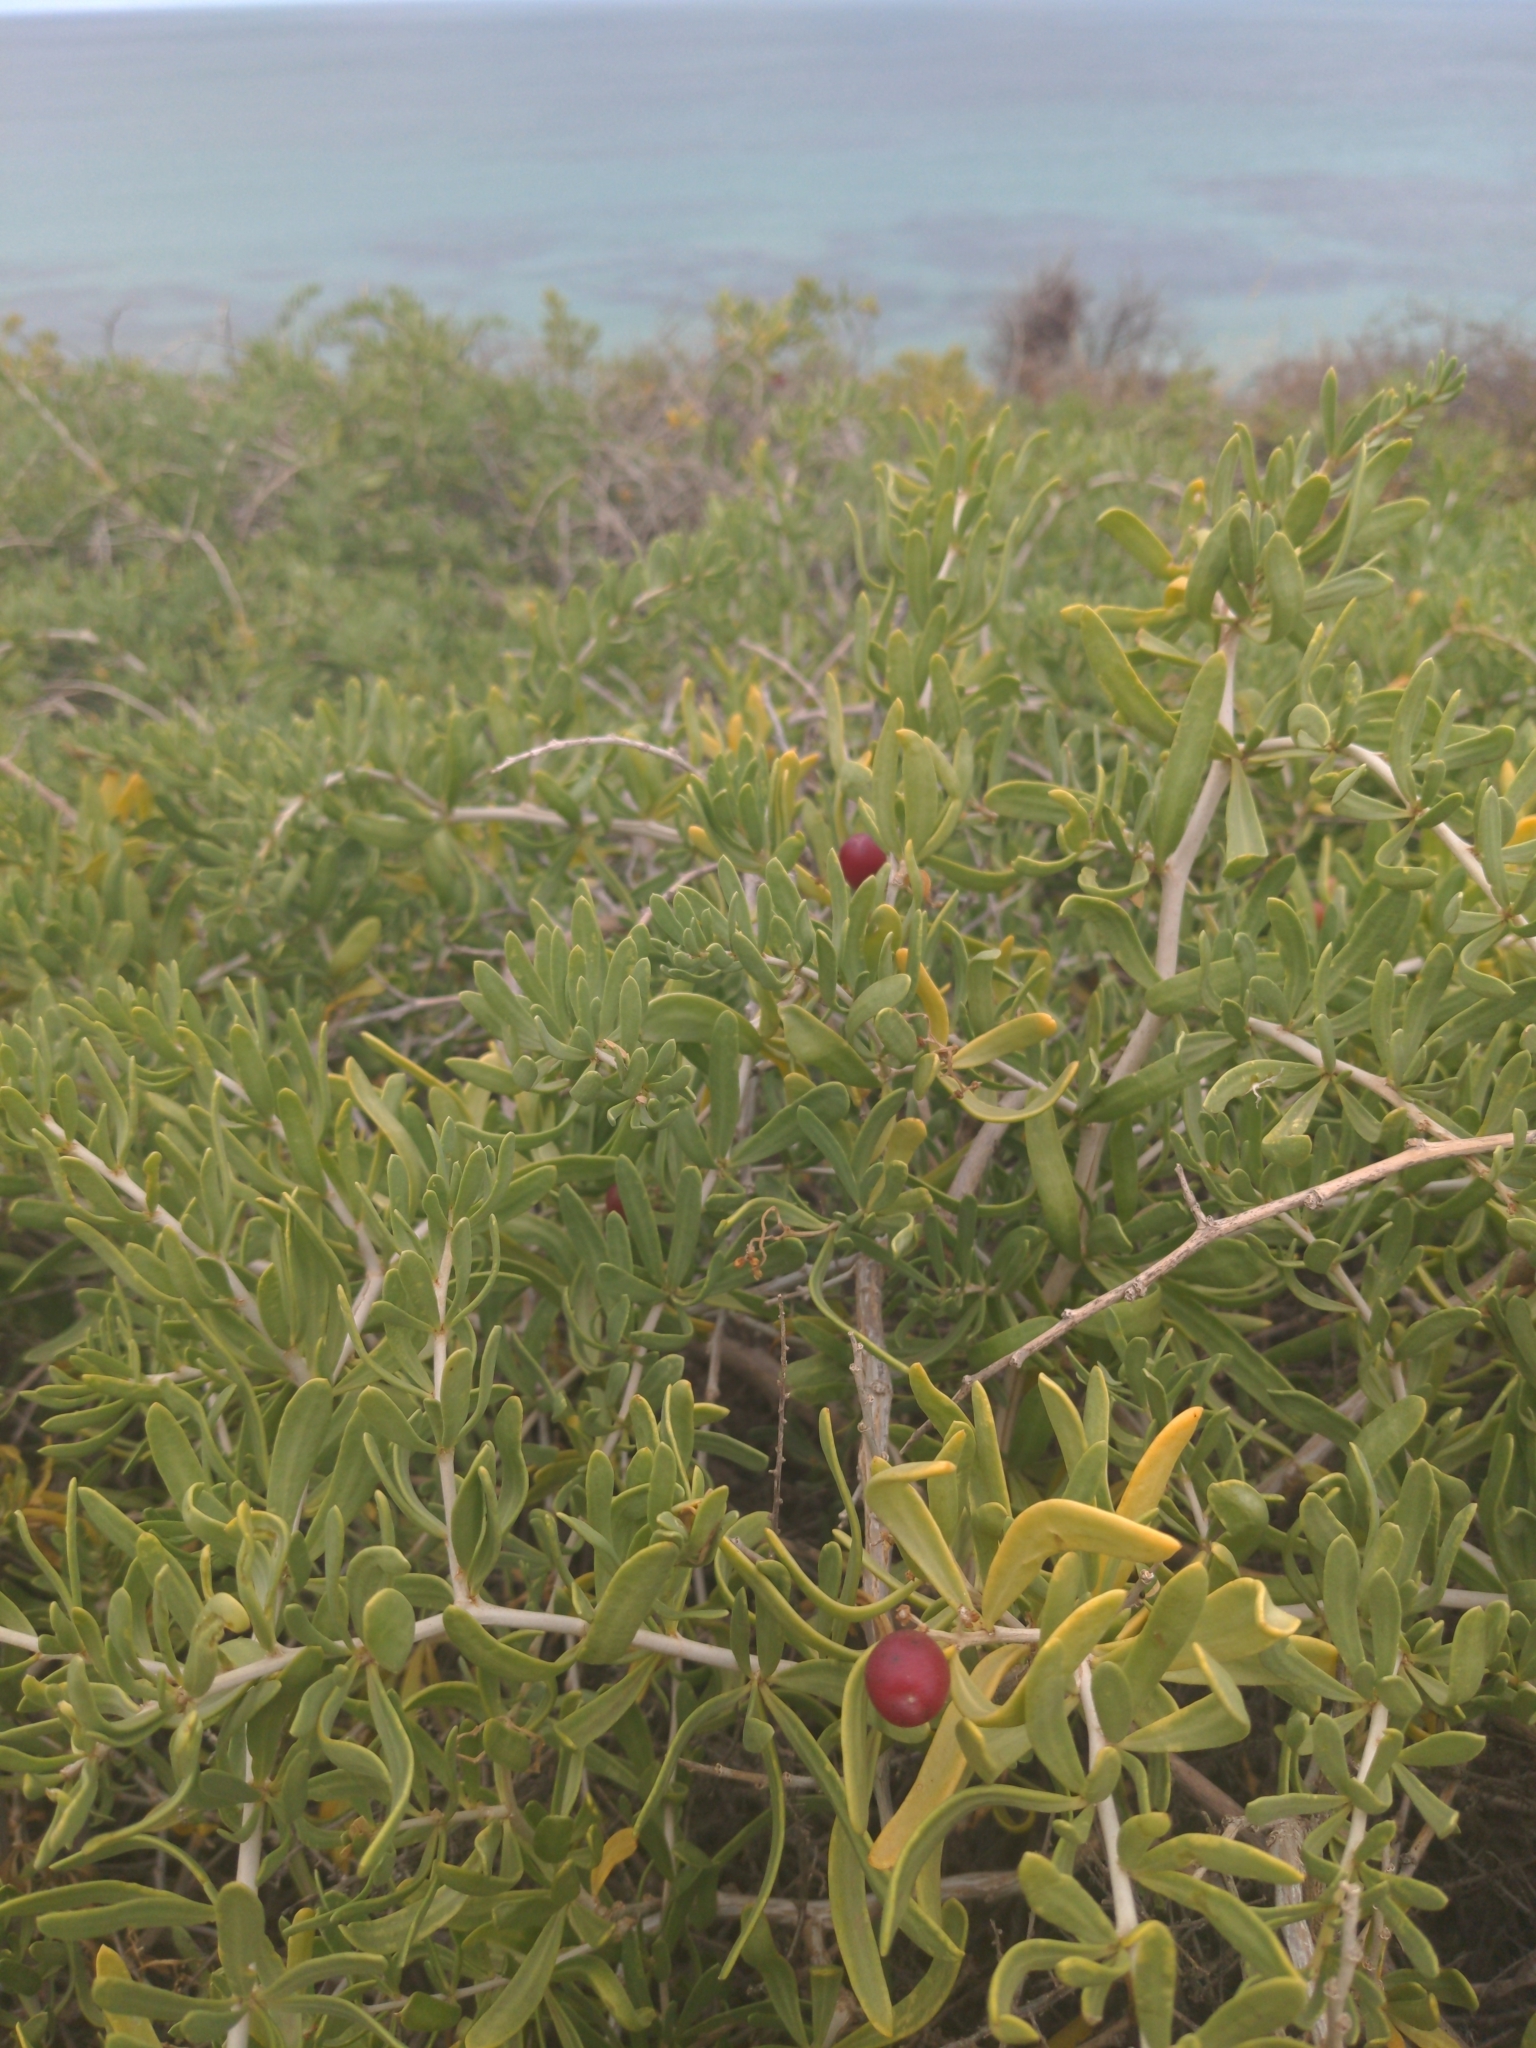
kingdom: Plantae
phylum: Tracheophyta
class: Magnoliopsida
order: Sapindales
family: Nitrariaceae
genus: Nitraria
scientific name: Nitraria billardierei
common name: Dillonbush
